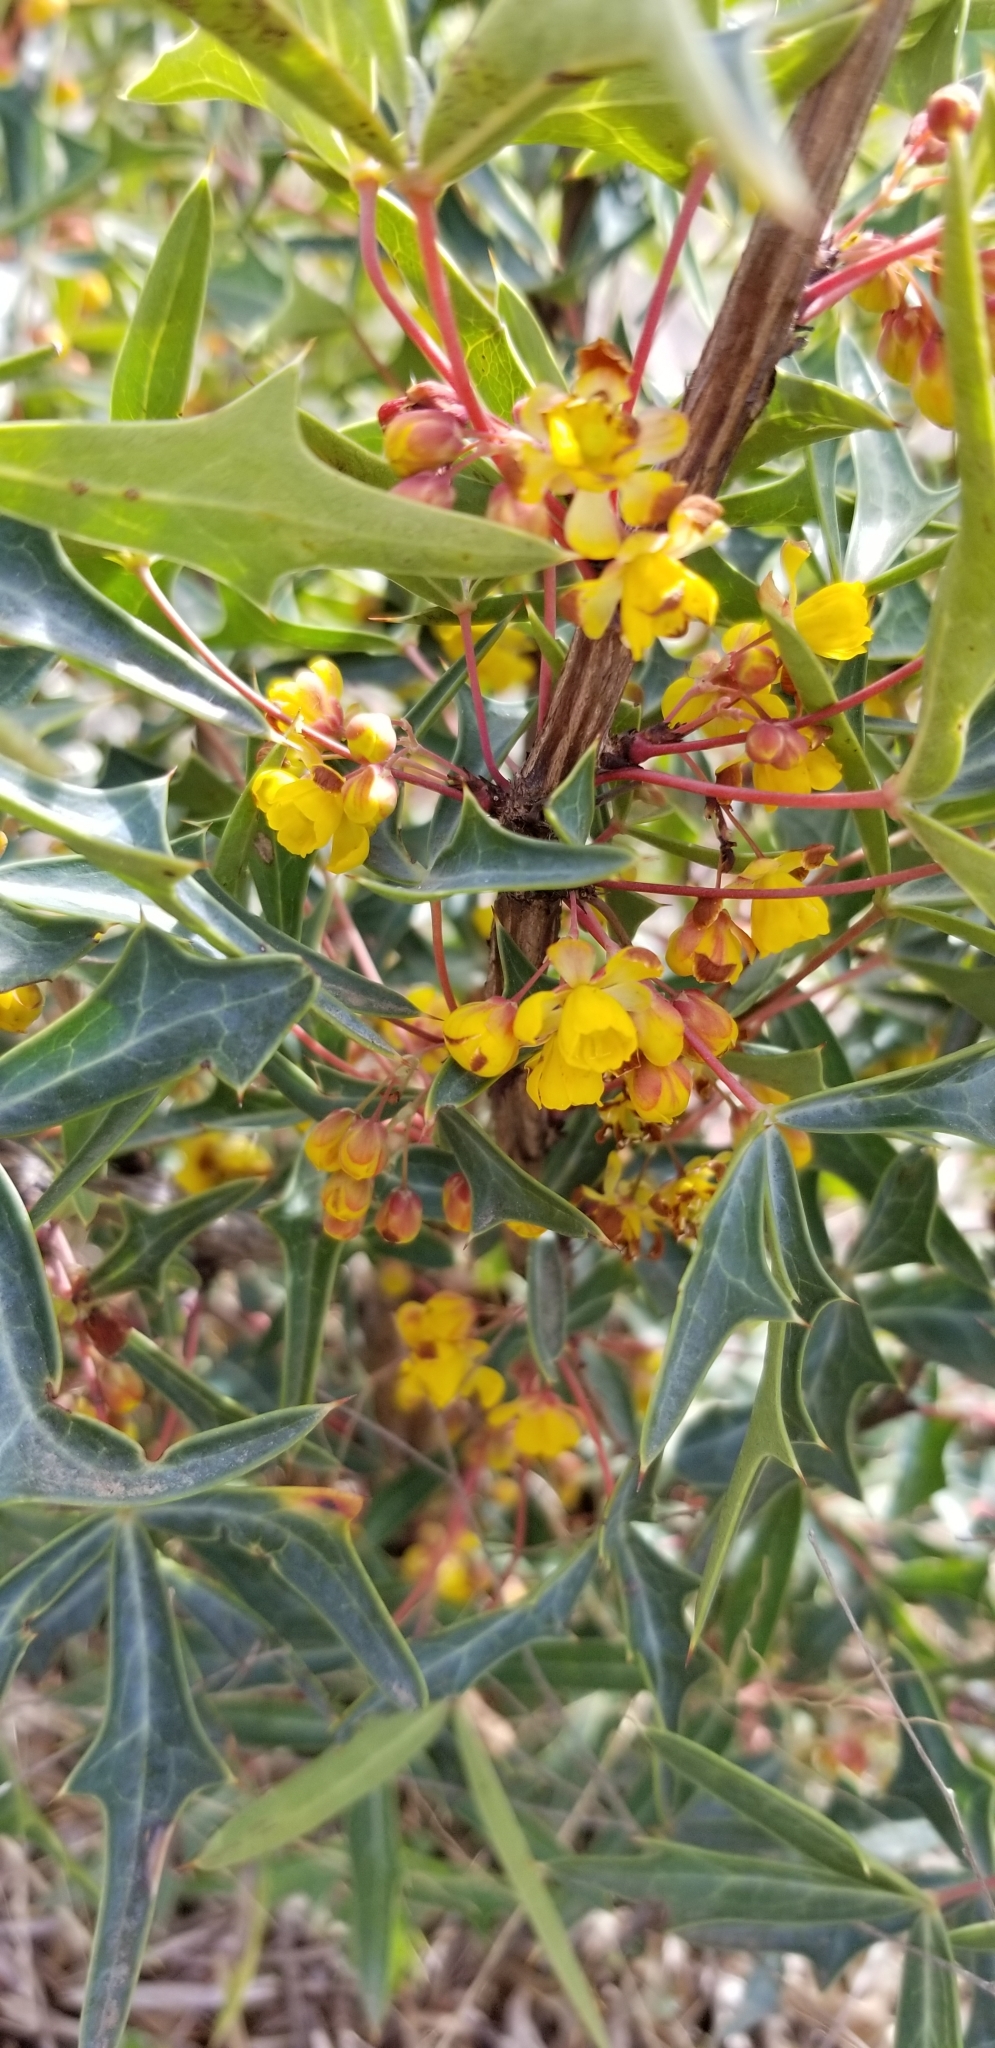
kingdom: Plantae
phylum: Tracheophyta
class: Magnoliopsida
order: Ranunculales
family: Berberidaceae
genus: Alloberberis
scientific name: Alloberberis trifoliolata
